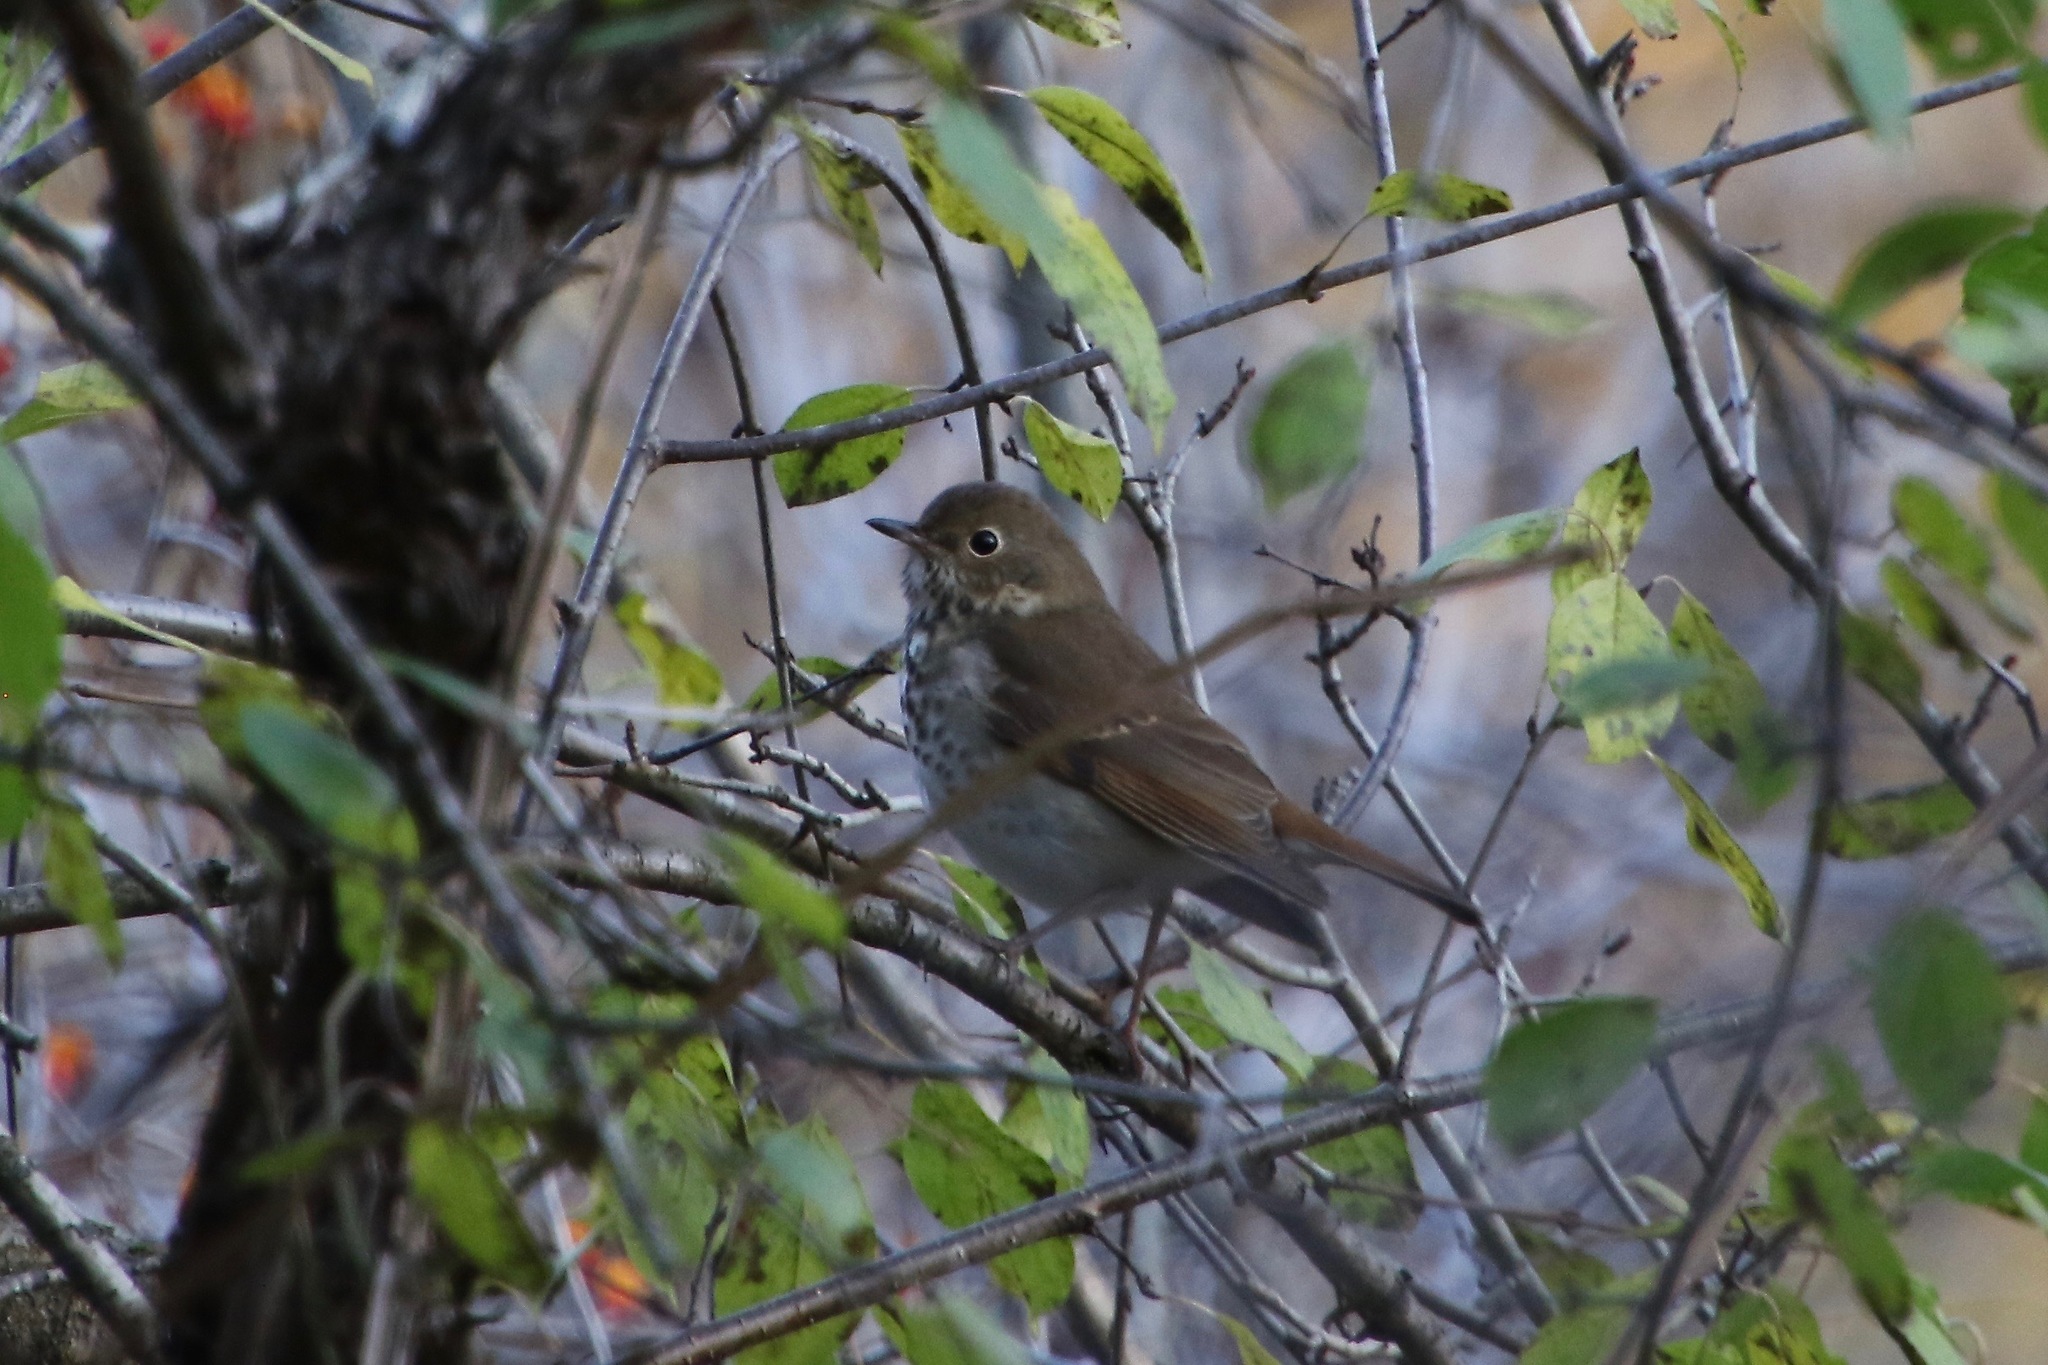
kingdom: Animalia
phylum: Chordata
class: Aves
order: Passeriformes
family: Turdidae
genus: Catharus
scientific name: Catharus guttatus
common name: Hermit thrush
